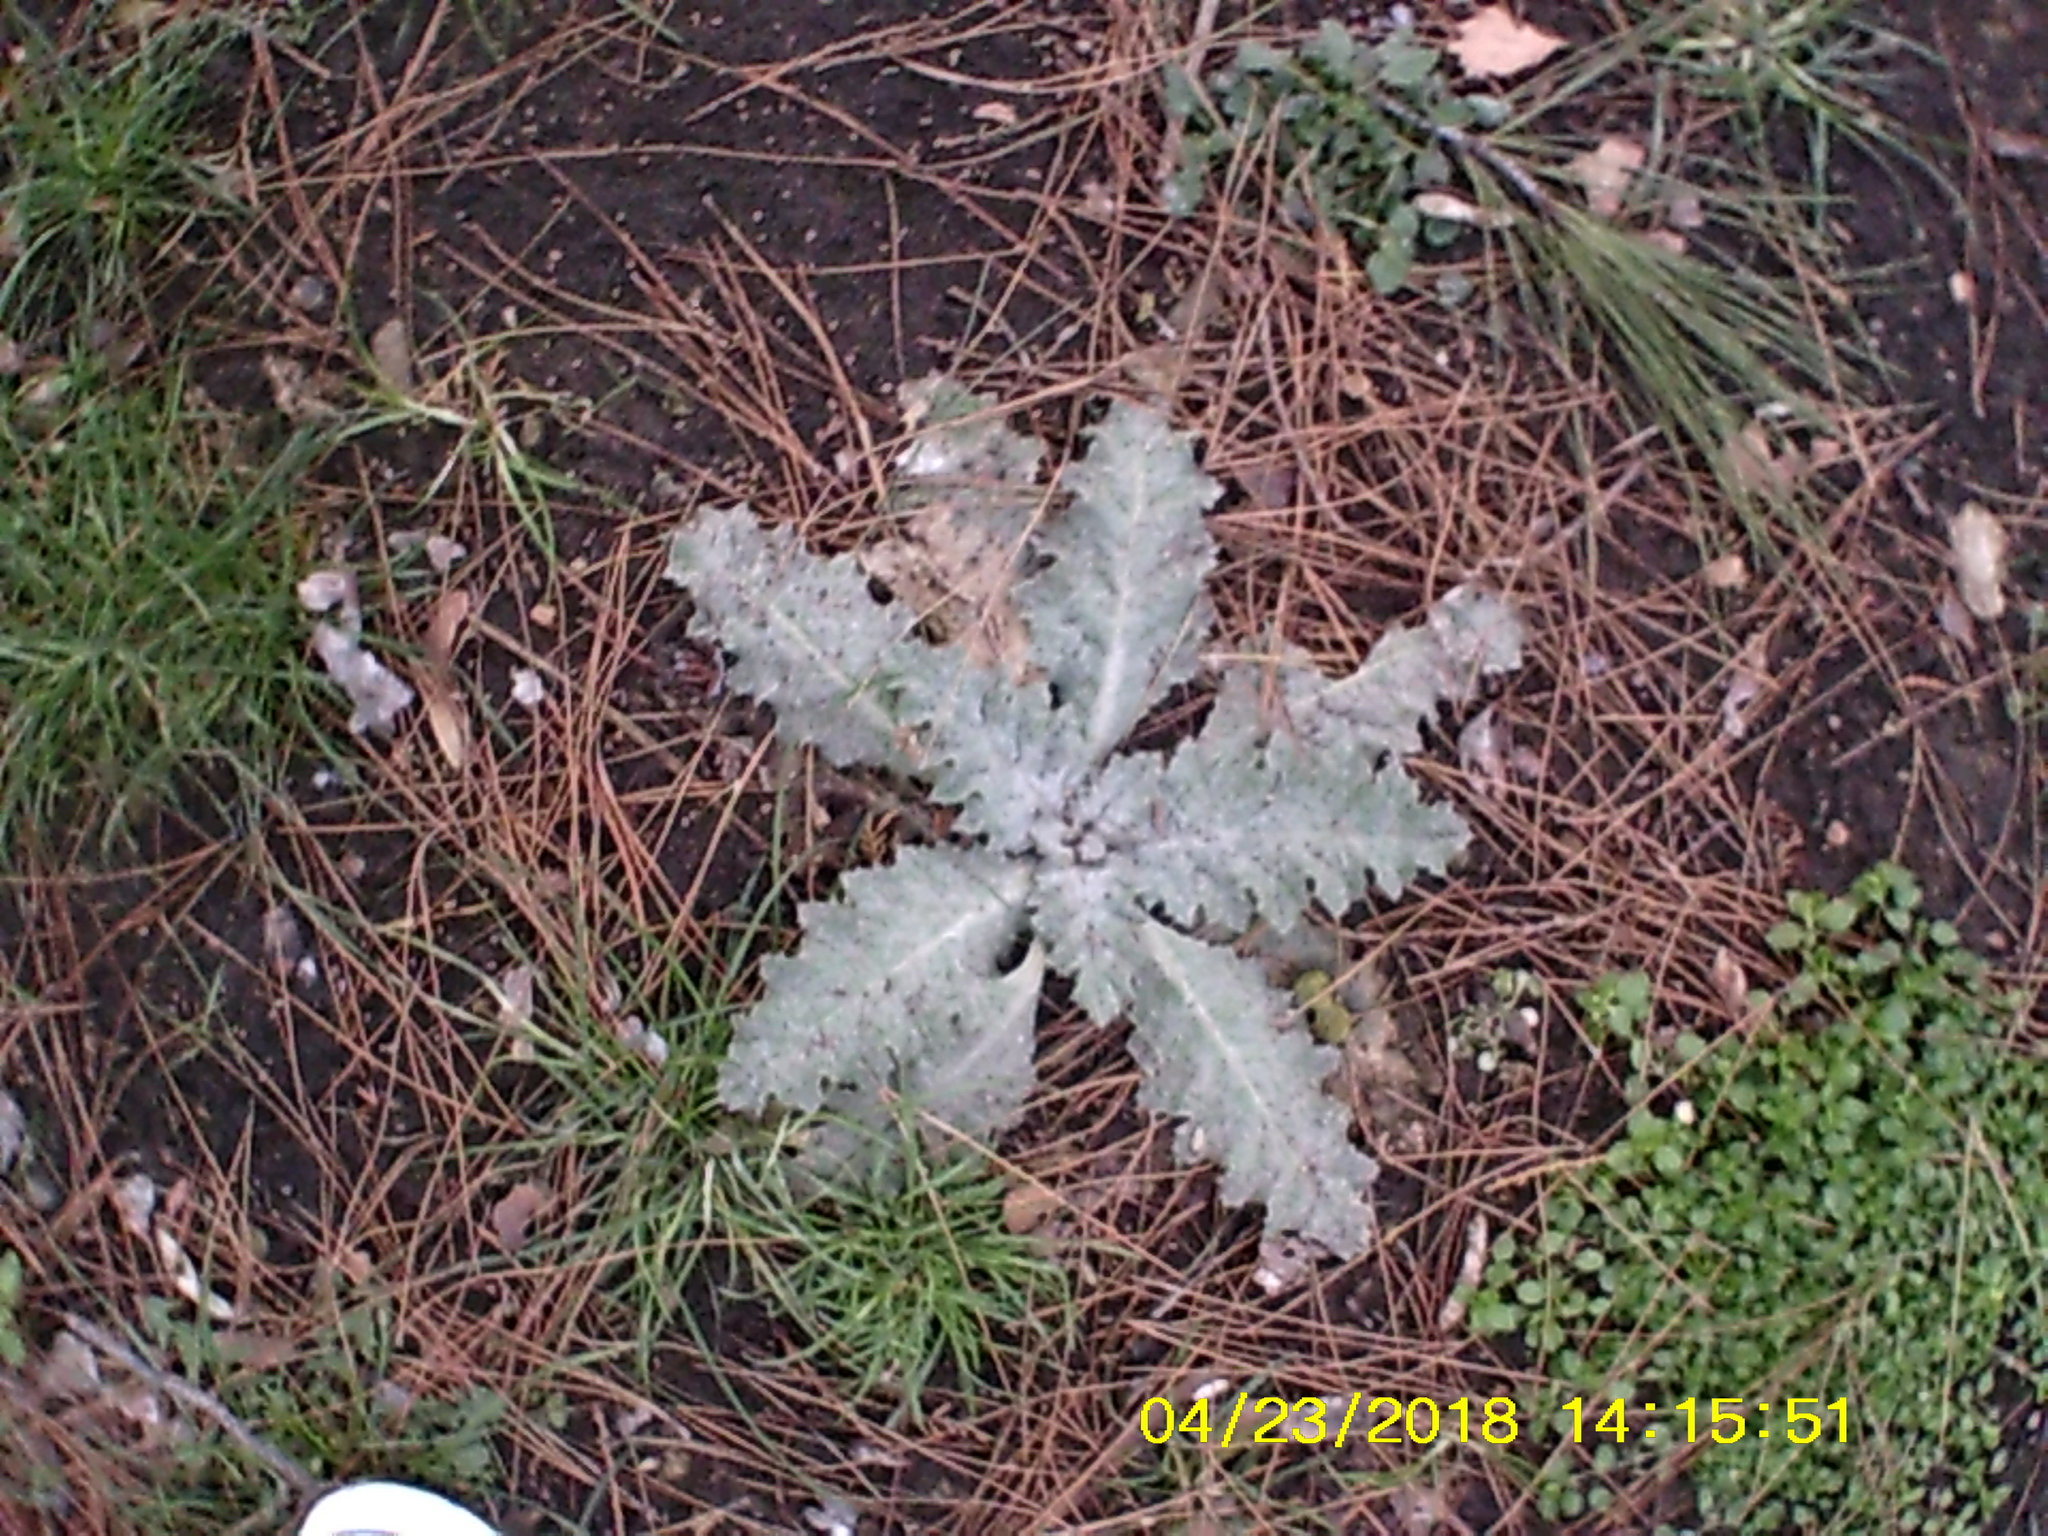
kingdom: Plantae
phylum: Tracheophyta
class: Magnoliopsida
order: Asterales
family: Asteraceae
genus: Onopordum
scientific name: Onopordum acanthium
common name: Scotch thistle
